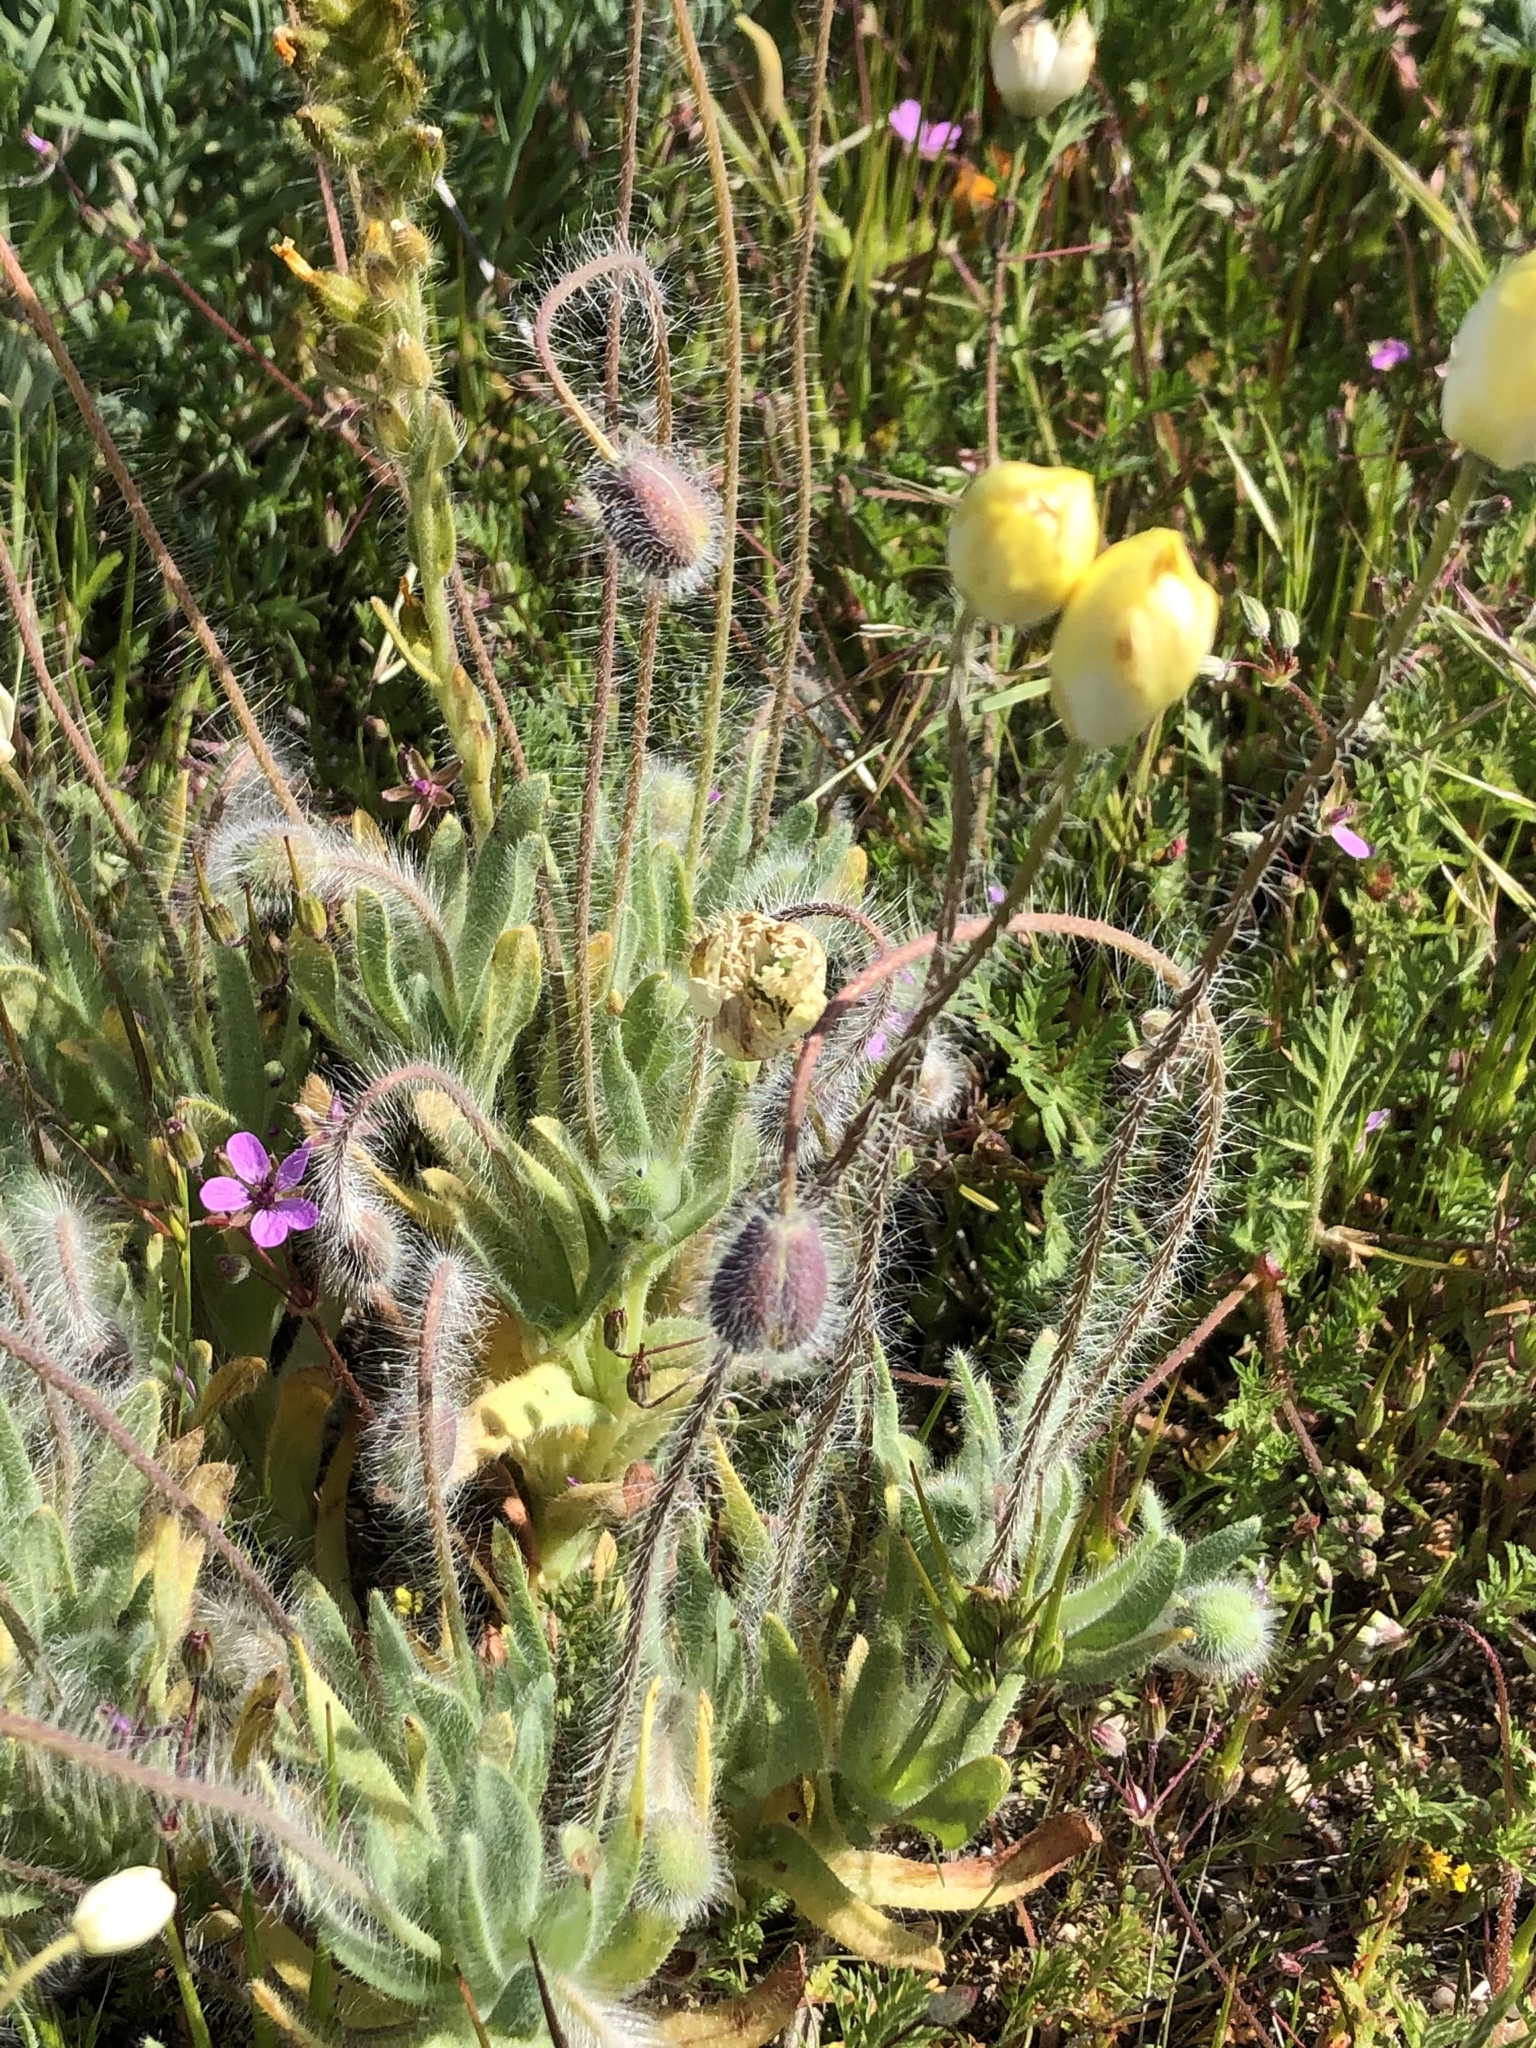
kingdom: Plantae
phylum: Tracheophyta
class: Magnoliopsida
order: Ranunculales
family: Papaveraceae
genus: Platystemon
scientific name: Platystemon californicus
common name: Cream-cups
